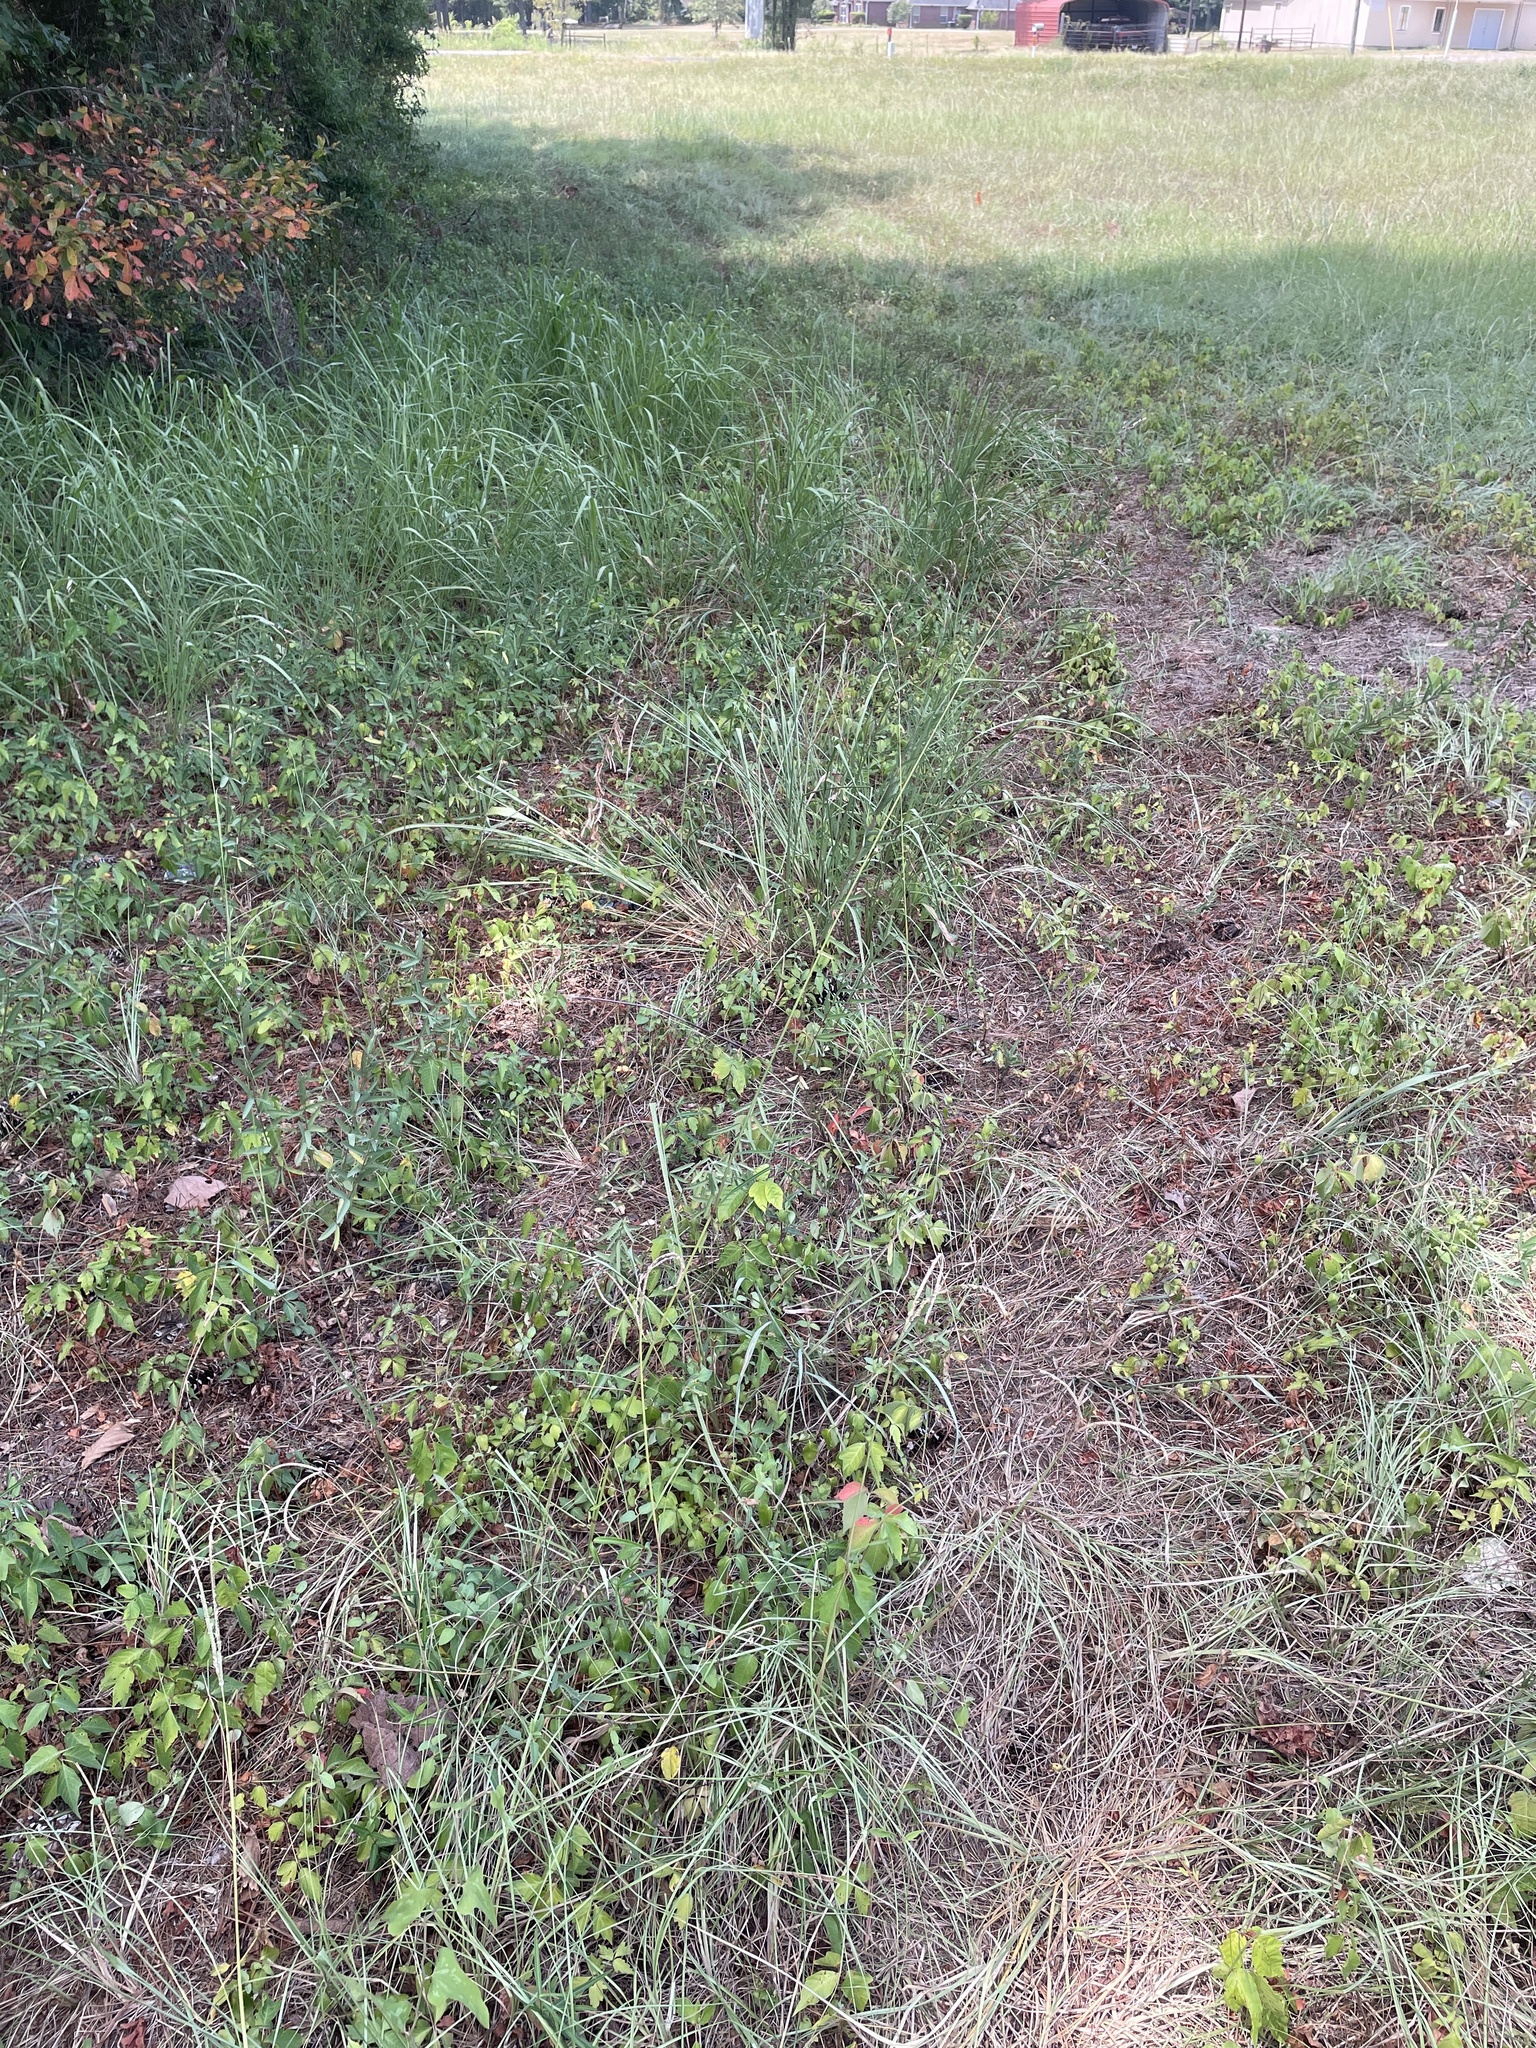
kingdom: Plantae
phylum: Tracheophyta
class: Liliopsida
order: Poales
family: Poaceae
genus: Tridens
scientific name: Tridens flavus
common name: Purpletop
